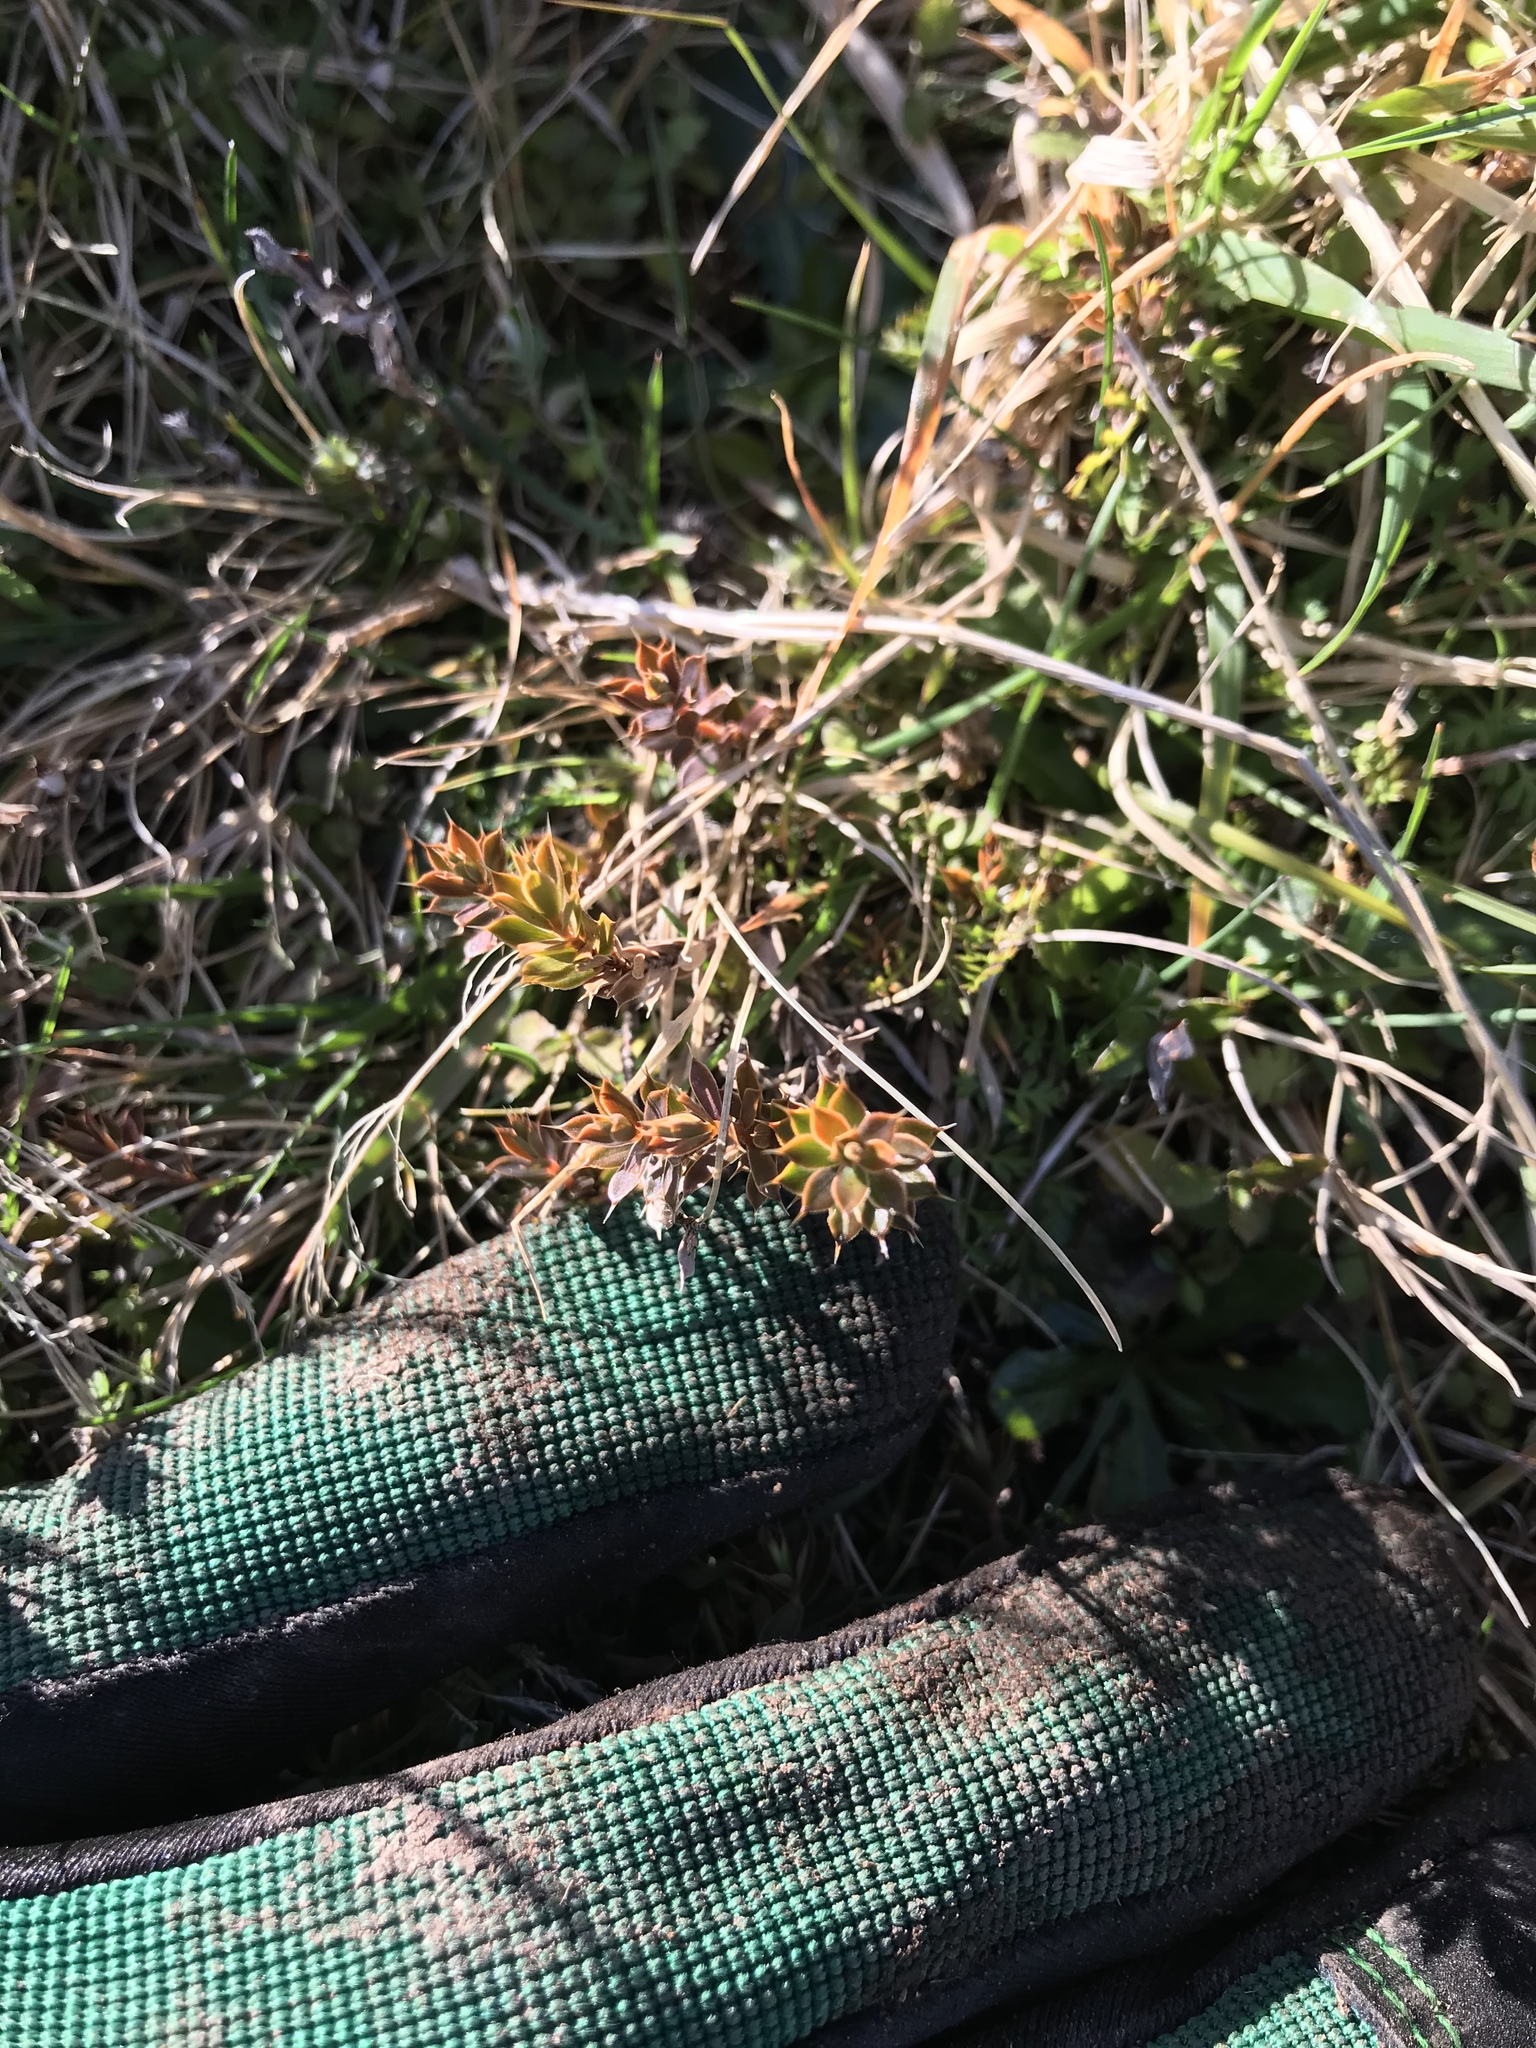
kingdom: Plantae
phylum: Tracheophyta
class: Magnoliopsida
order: Ericales
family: Ericaceae
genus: Styphelia
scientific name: Styphelia nesophila
